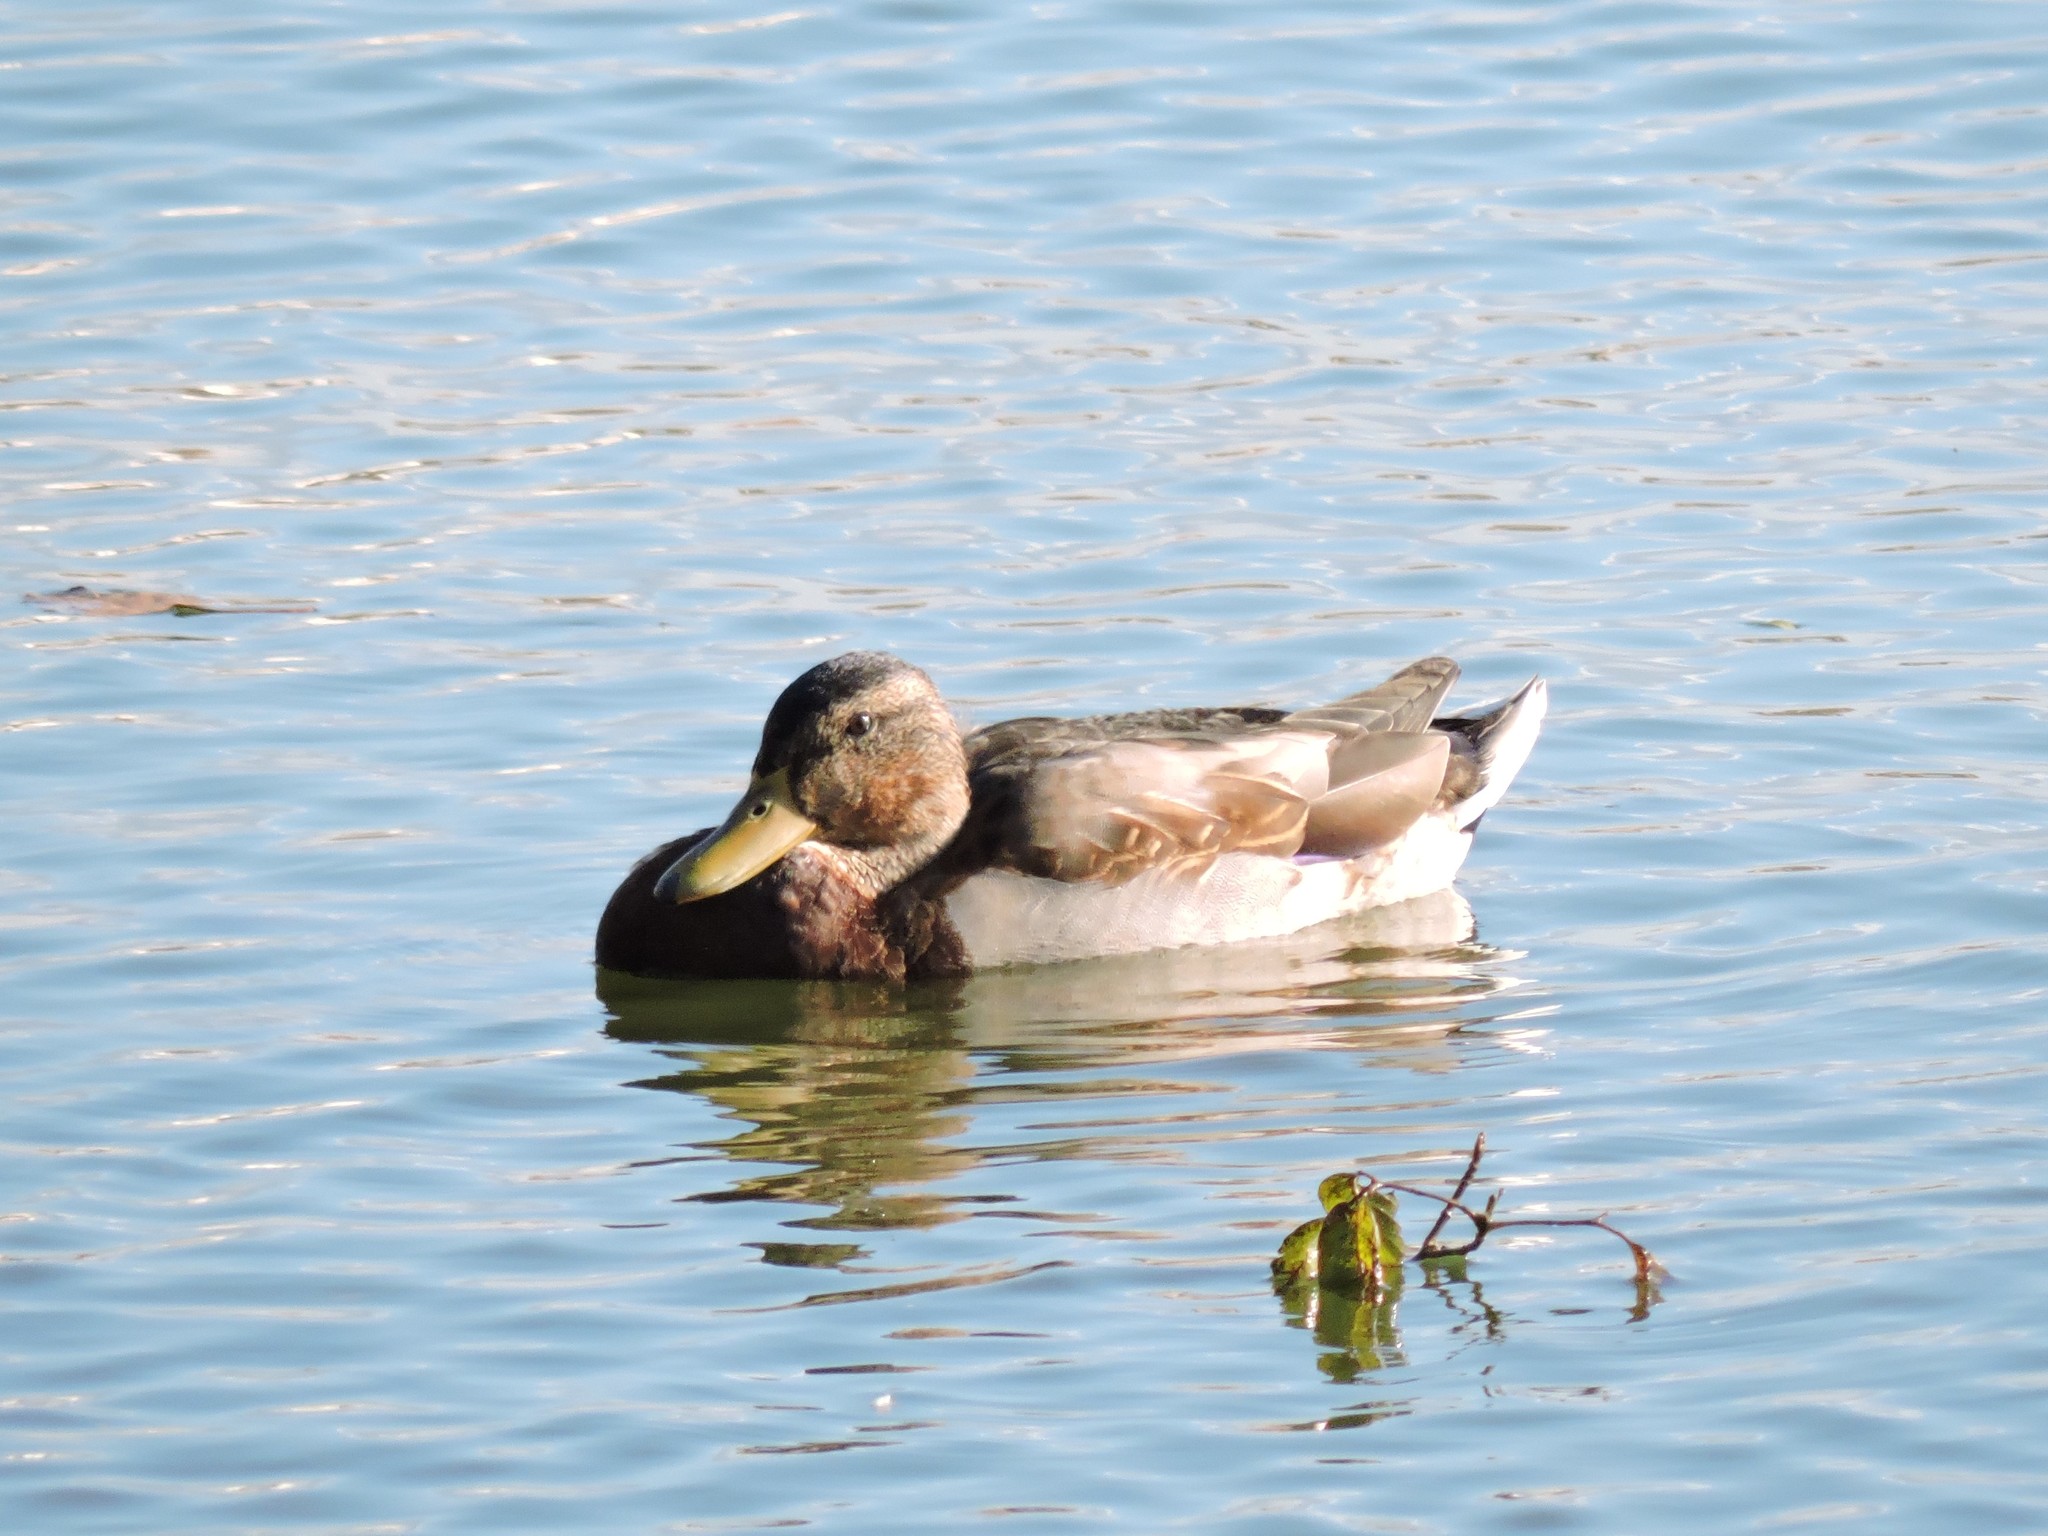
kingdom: Animalia
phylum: Chordata
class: Aves
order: Anseriformes
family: Anatidae
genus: Anas
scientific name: Anas platyrhynchos
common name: Mallard
